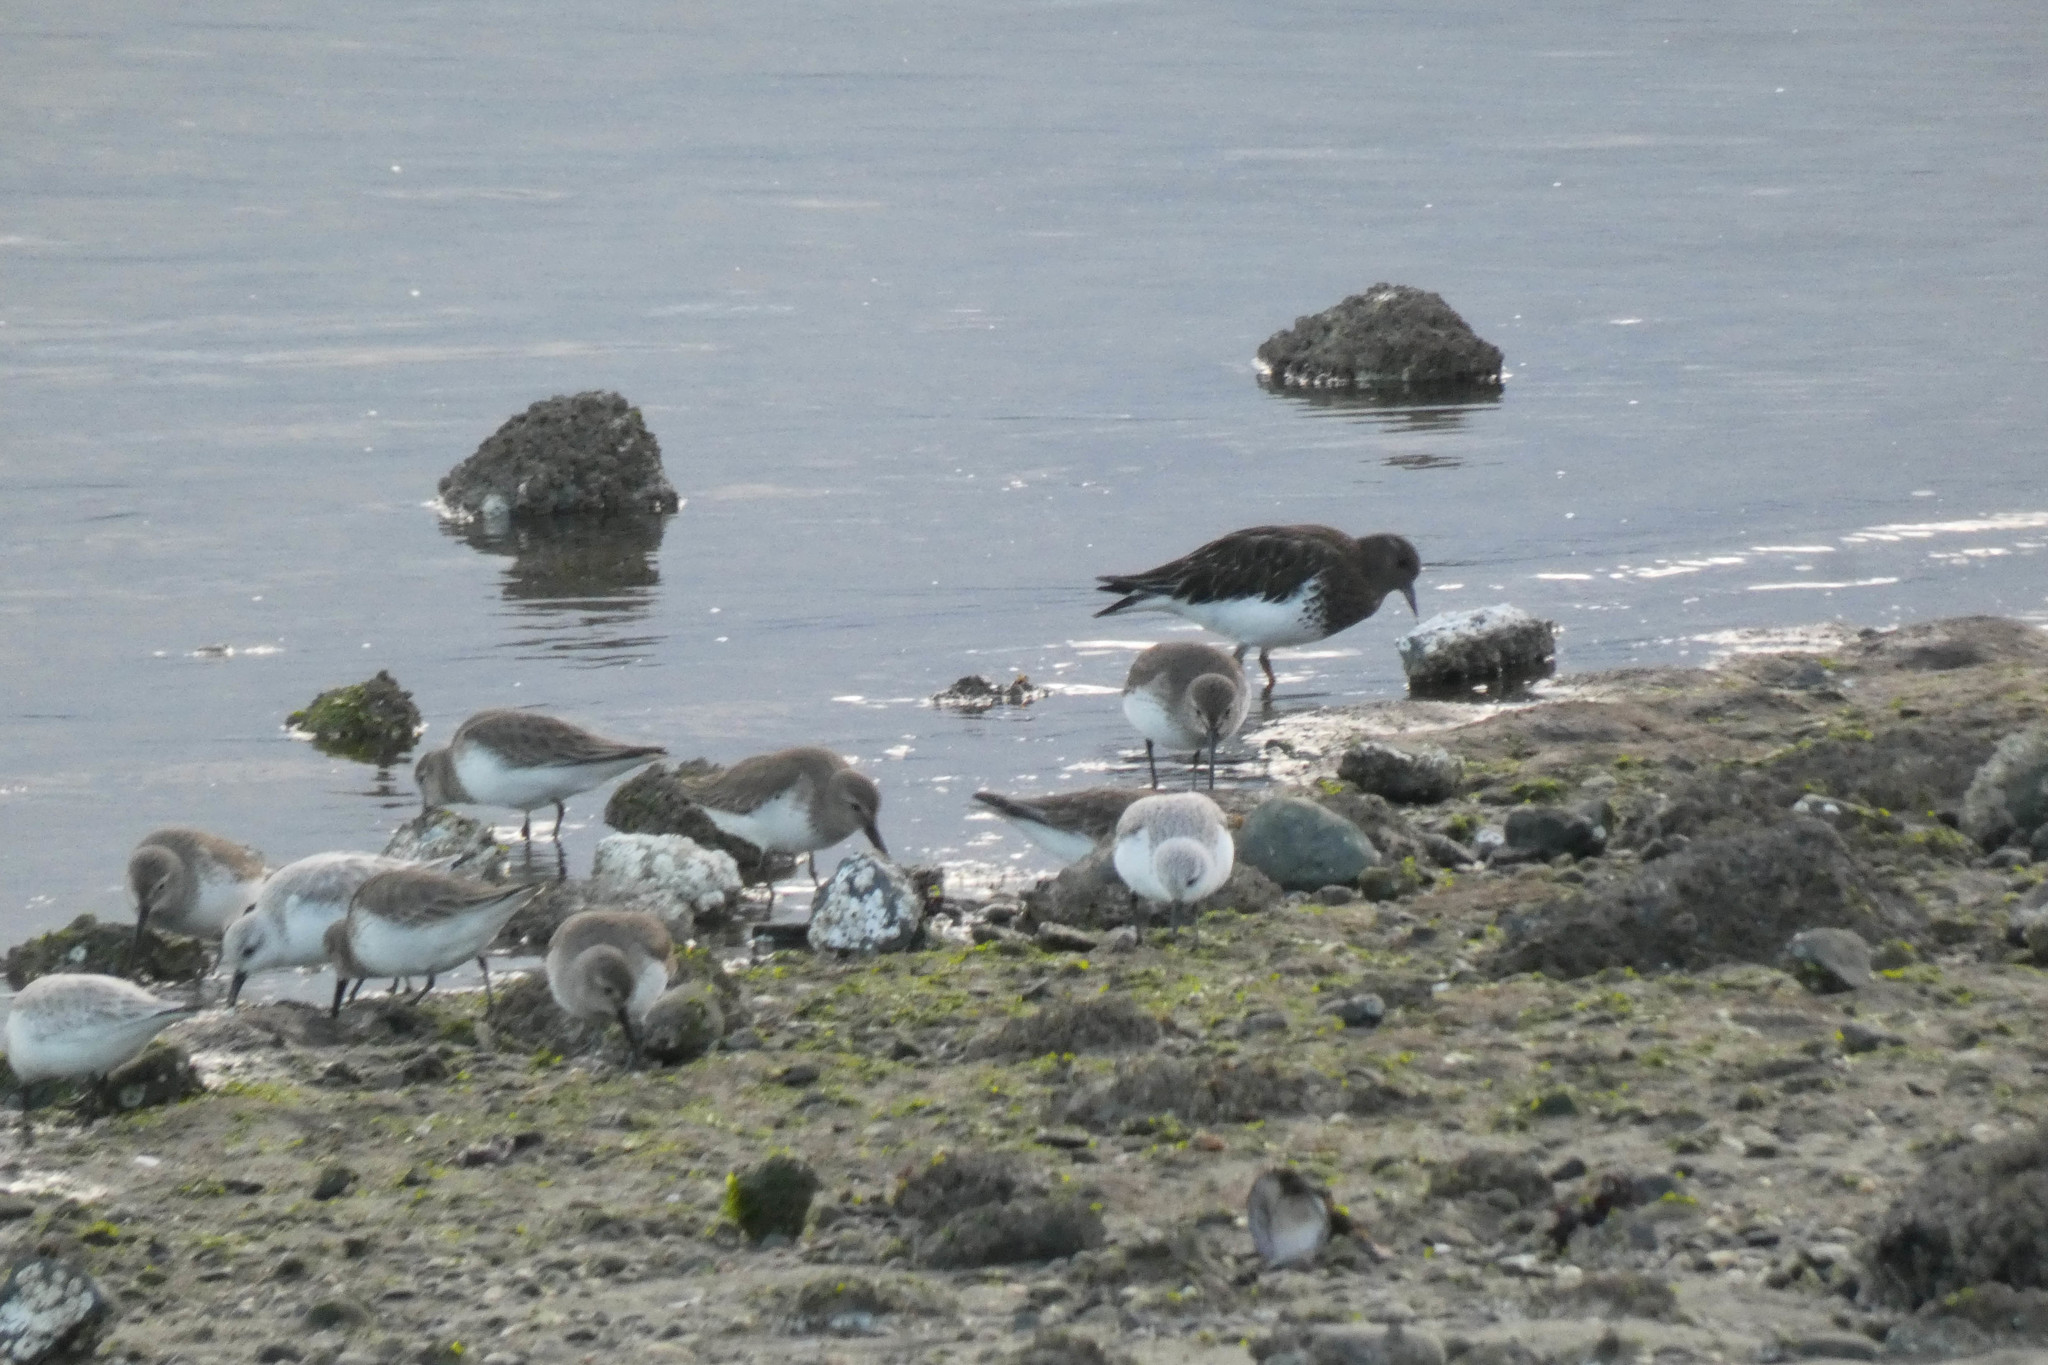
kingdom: Animalia
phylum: Chordata
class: Aves
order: Charadriiformes
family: Scolopacidae
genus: Arenaria
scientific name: Arenaria melanocephala
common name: Black turnstone
